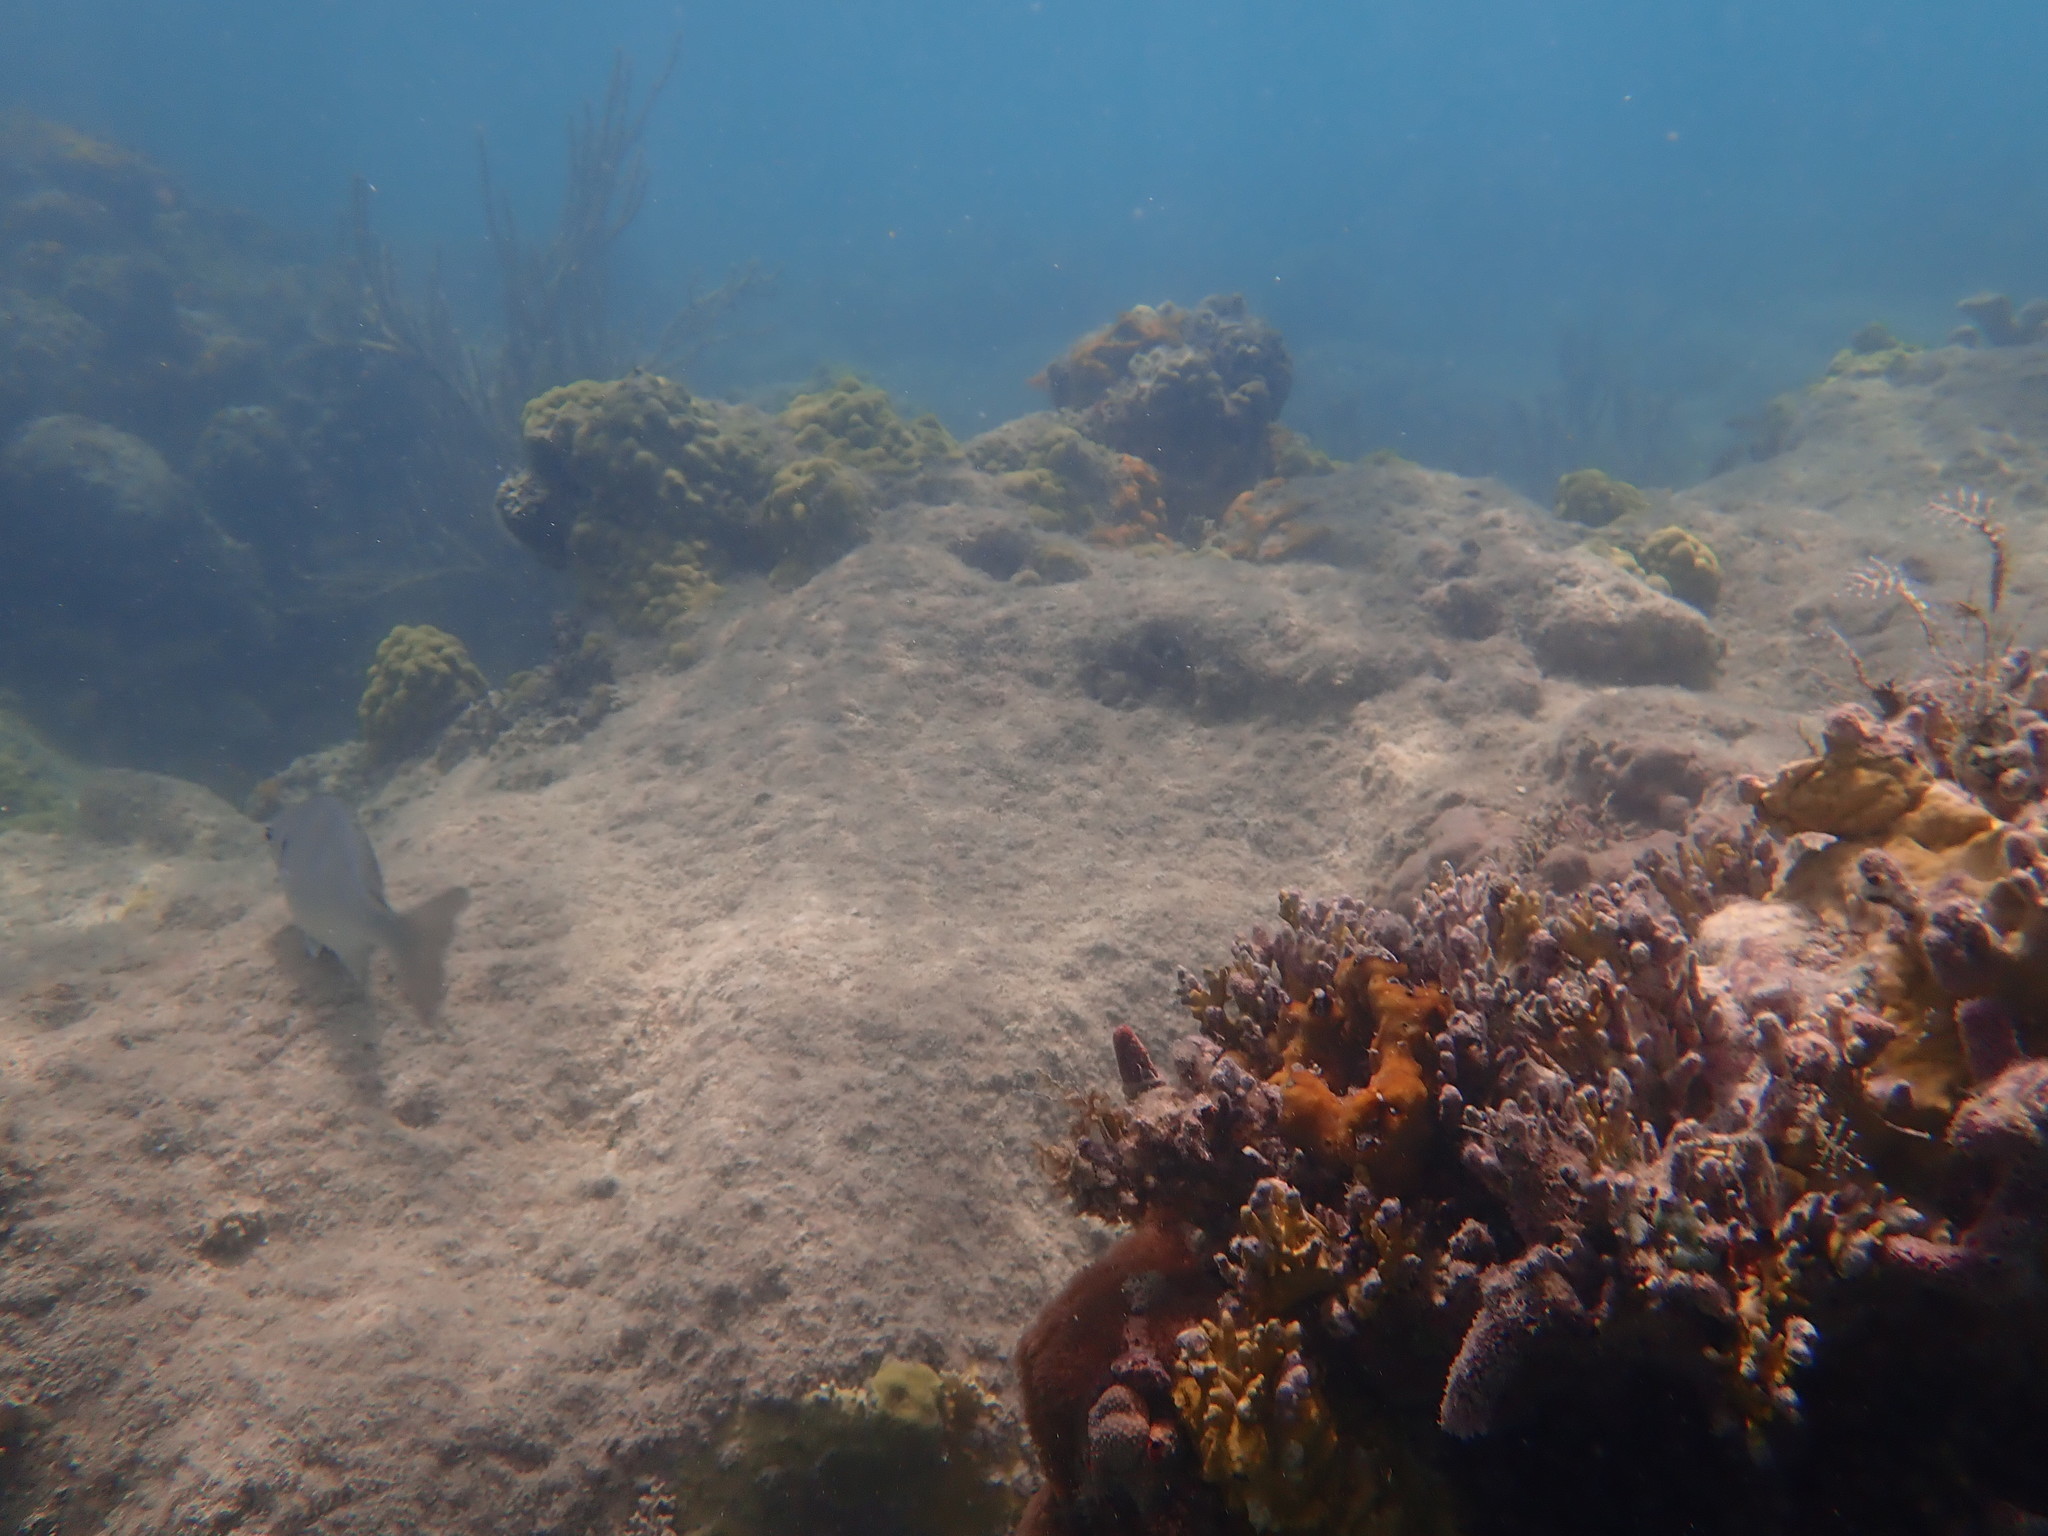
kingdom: Animalia
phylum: Chordata
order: Perciformes
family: Kyphosidae
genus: Kyphosus
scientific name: Kyphosus
